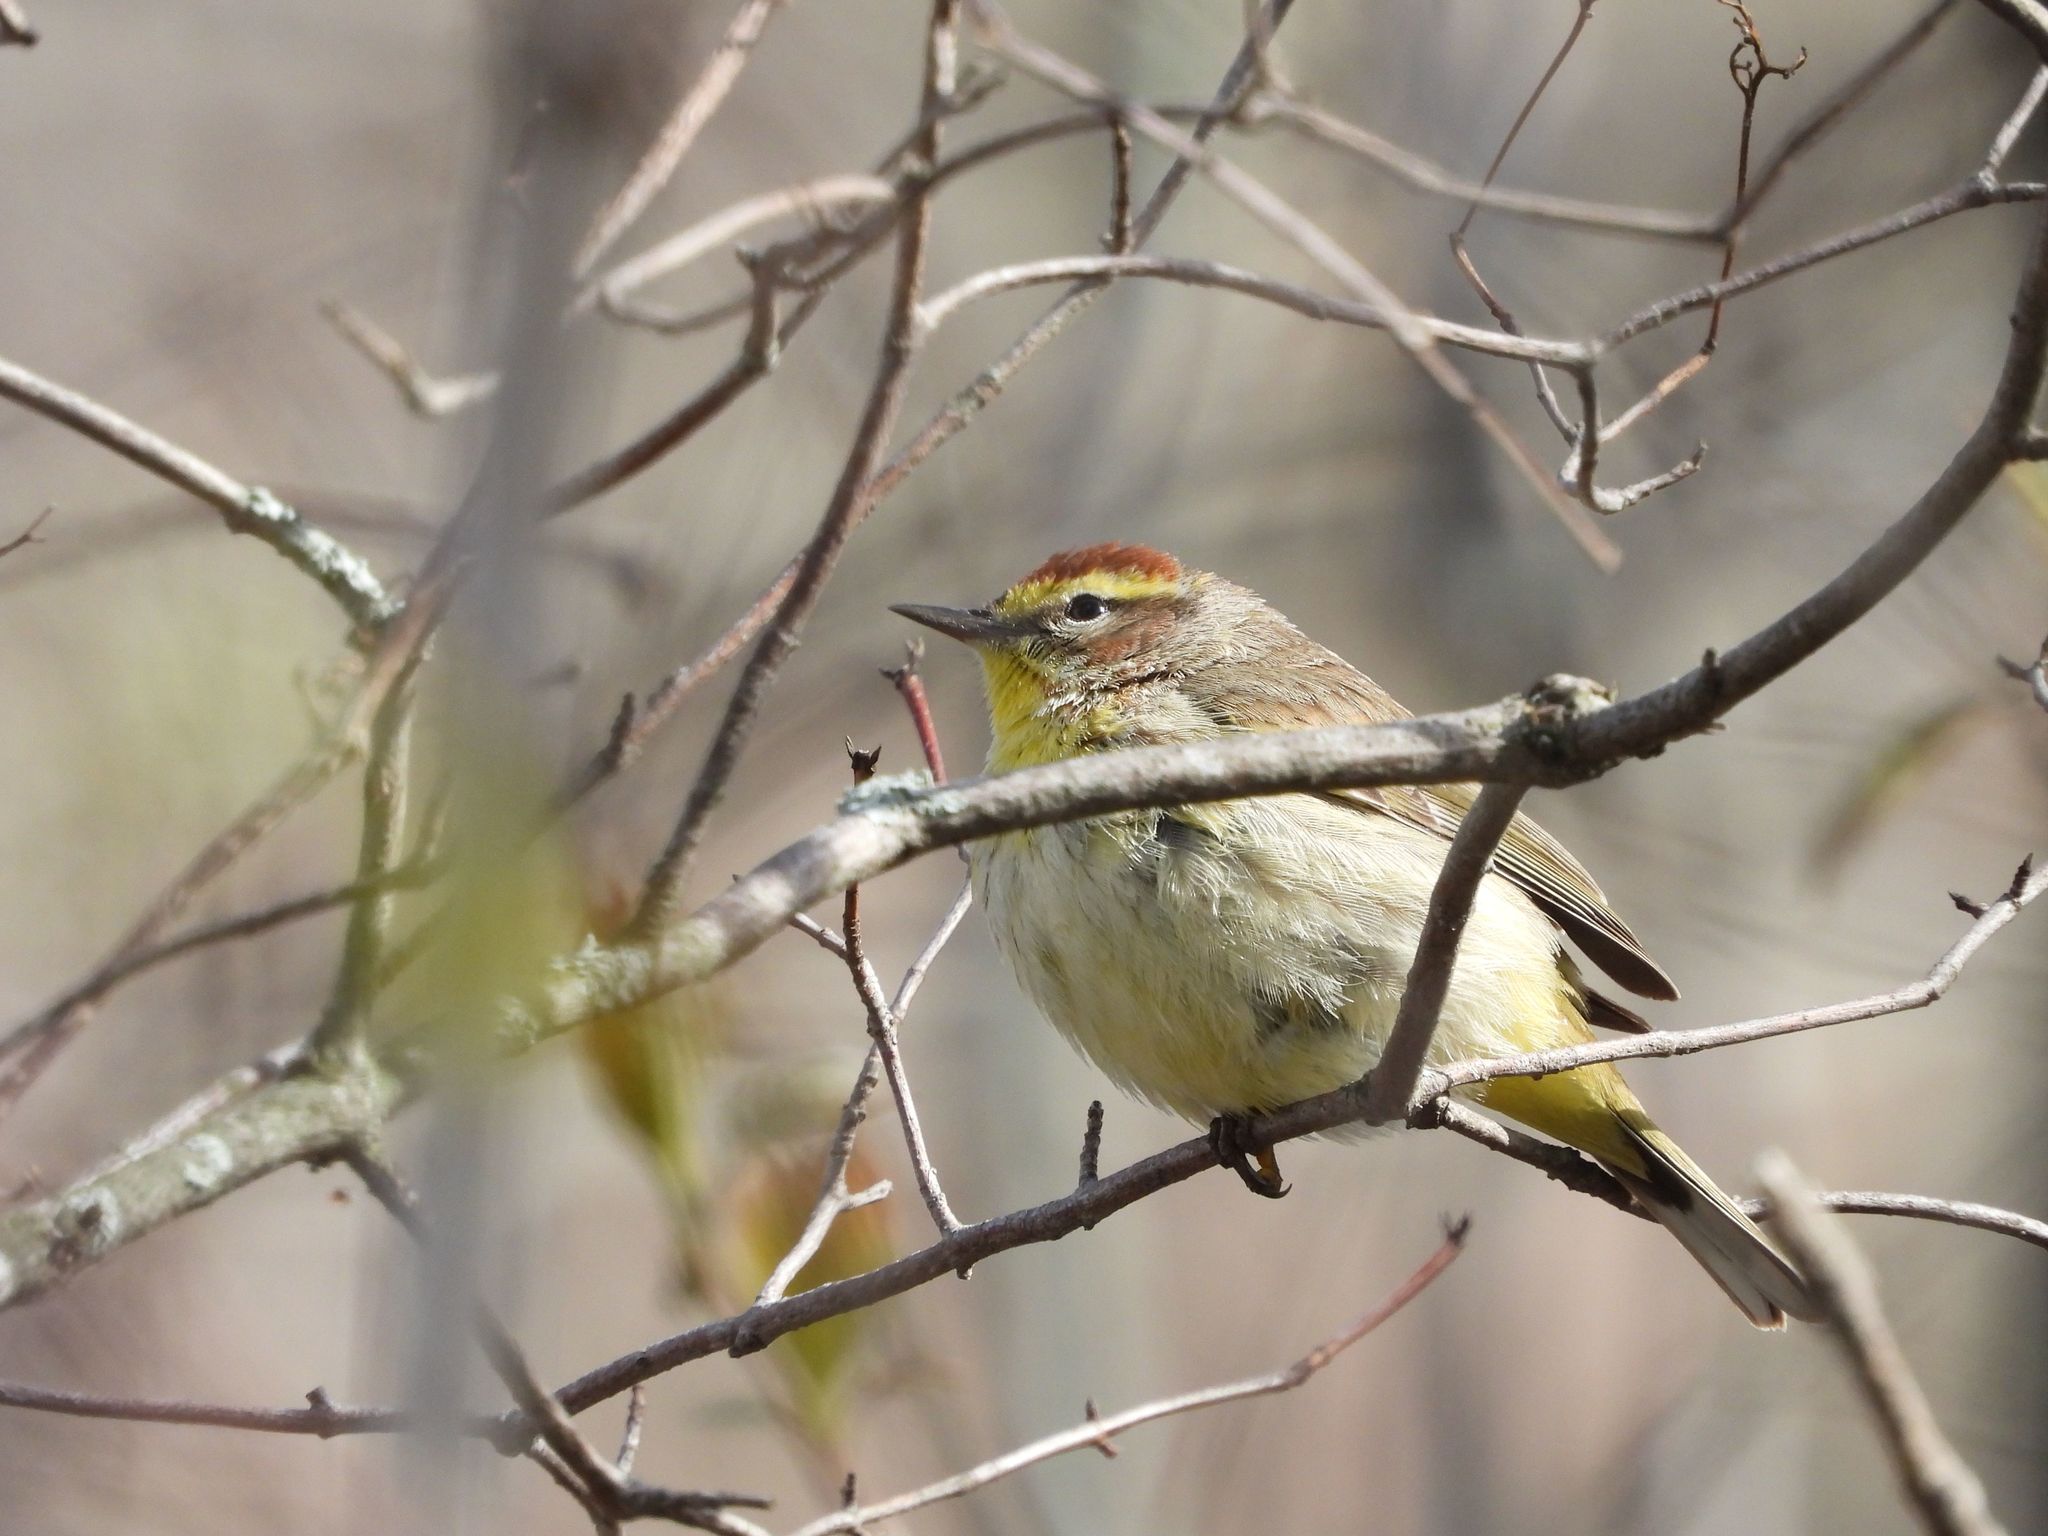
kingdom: Animalia
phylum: Chordata
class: Aves
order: Passeriformes
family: Parulidae
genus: Setophaga
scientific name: Setophaga palmarum
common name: Palm warbler
